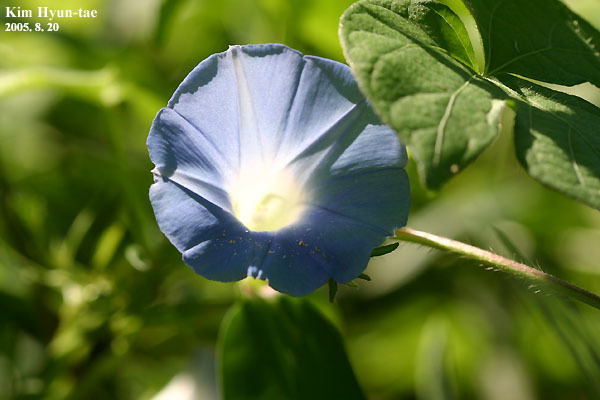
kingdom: Plantae
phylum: Tracheophyta
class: Magnoliopsida
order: Solanales
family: Convolvulaceae
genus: Ipomoea
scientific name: Ipomoea nil
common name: Japanese morning-glory
